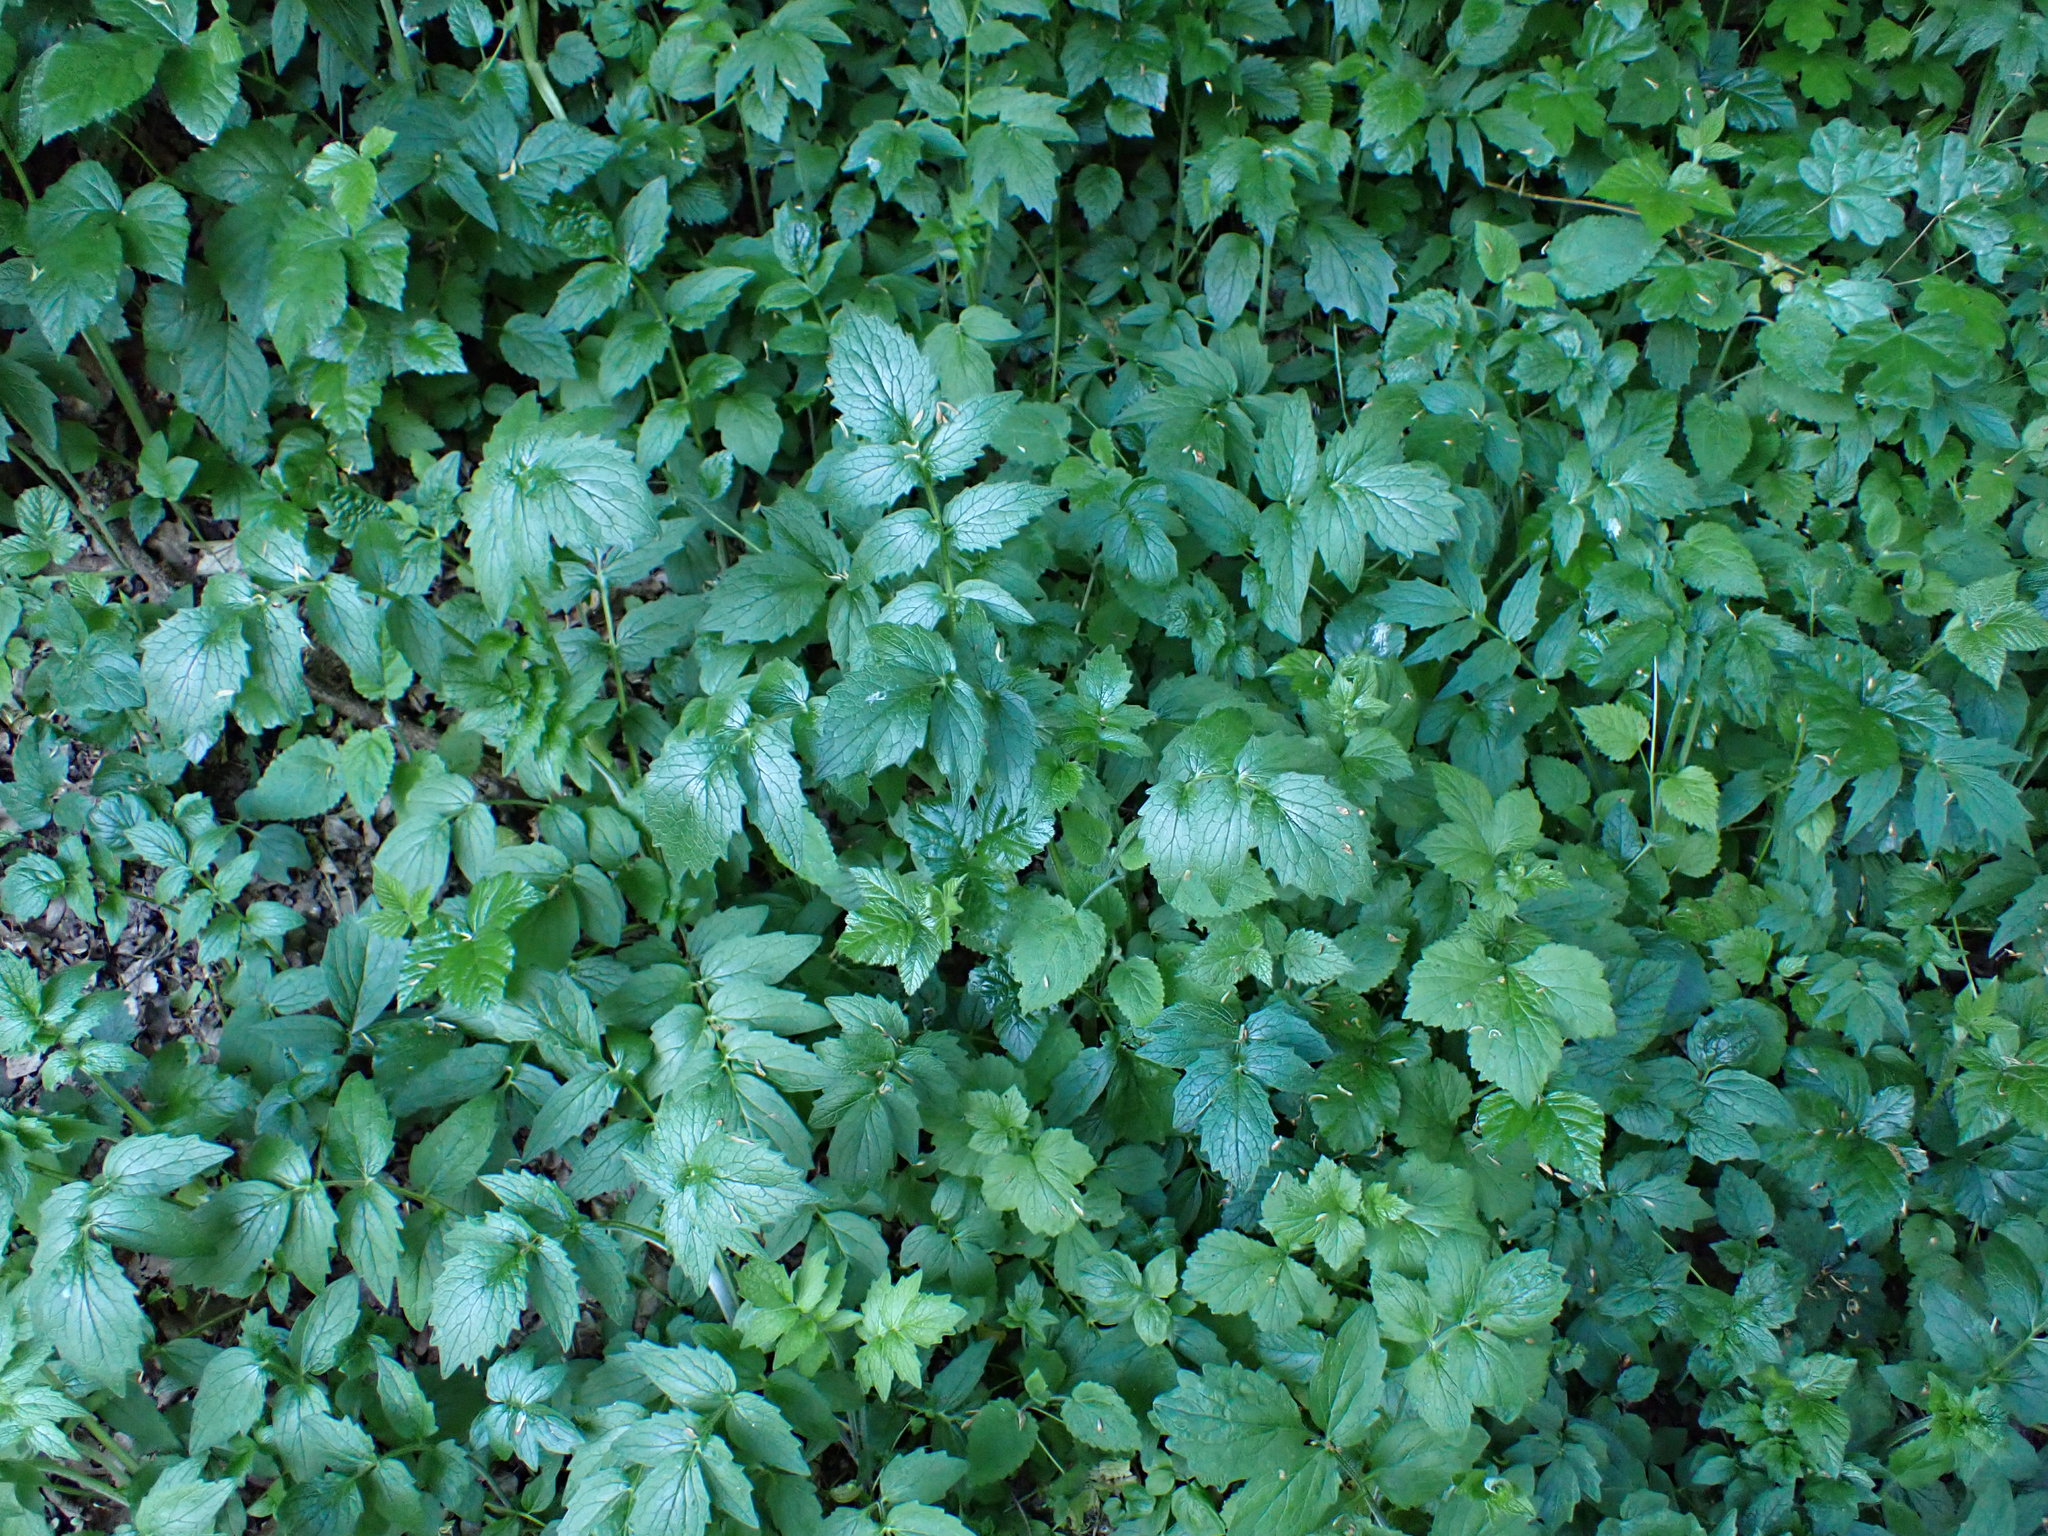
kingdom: Plantae
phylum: Tracheophyta
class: Magnoliopsida
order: Dipsacales
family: Caprifoliaceae
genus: Valeriana
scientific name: Valeriana officinalis
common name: Common valerian
